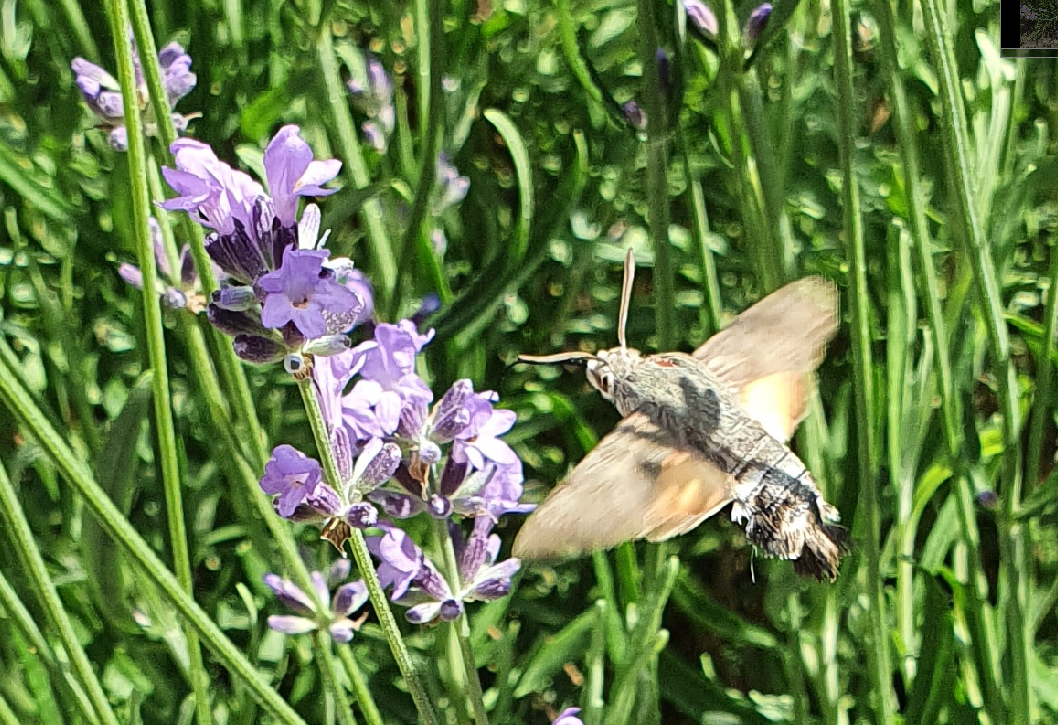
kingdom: Animalia
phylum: Arthropoda
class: Insecta
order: Lepidoptera
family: Sphingidae
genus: Macroglossum
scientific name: Macroglossum stellatarum
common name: Humming-bird hawk-moth
